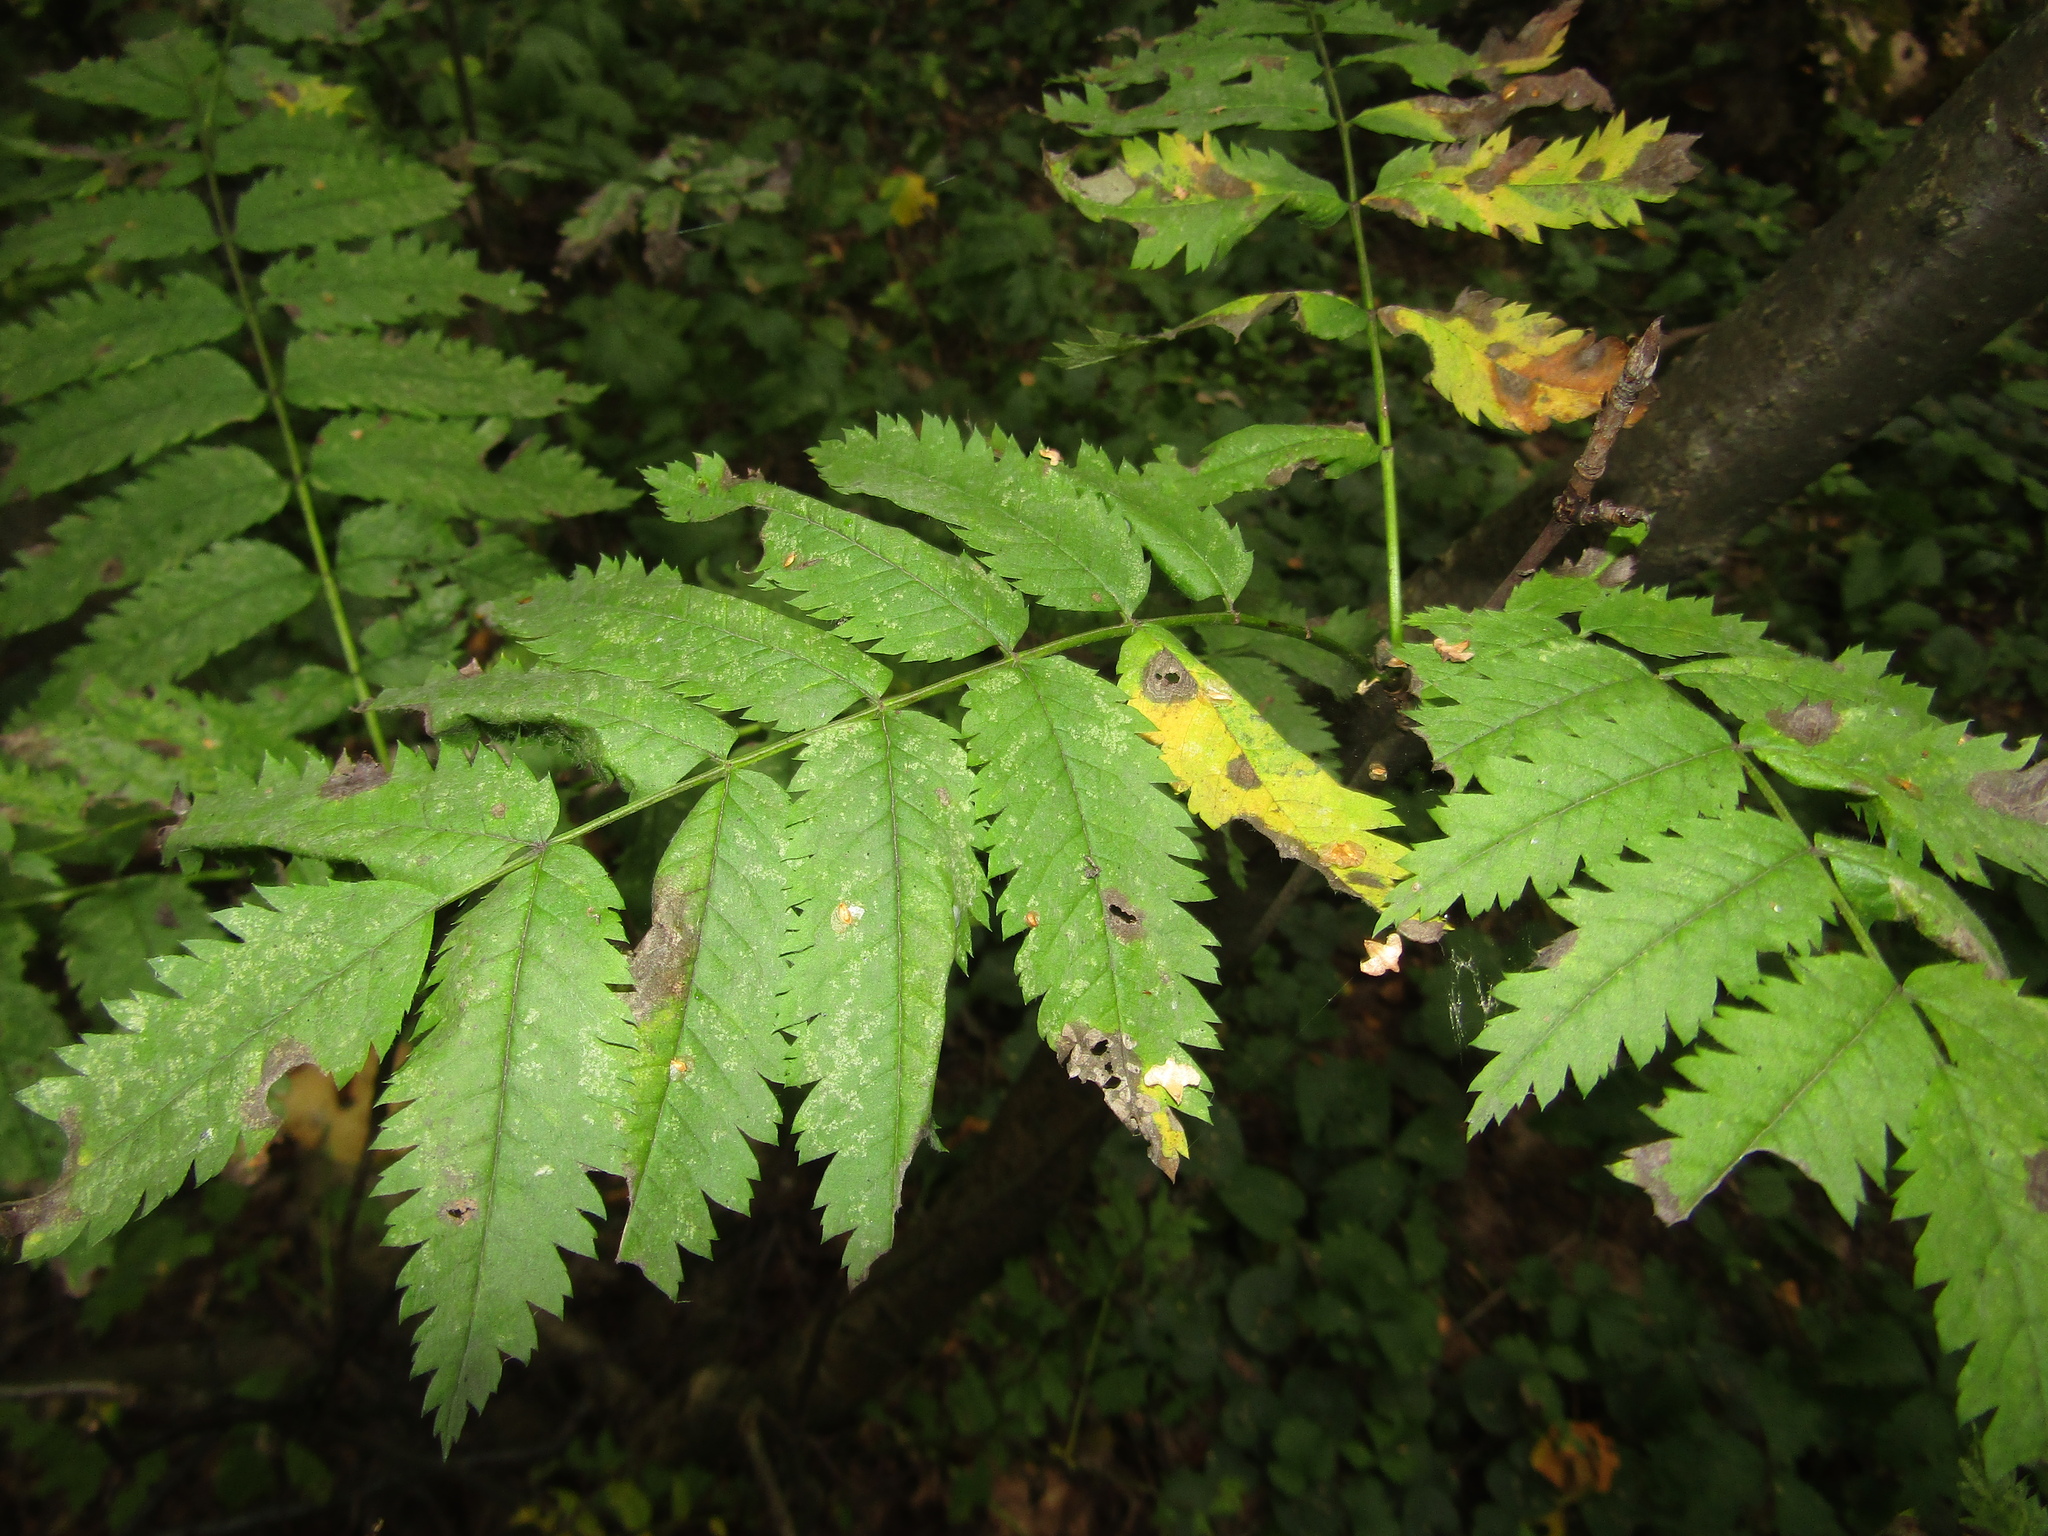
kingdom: Plantae
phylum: Tracheophyta
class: Magnoliopsida
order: Rosales
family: Rosaceae
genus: Sorbus
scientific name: Sorbus aucuparia
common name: Rowan
